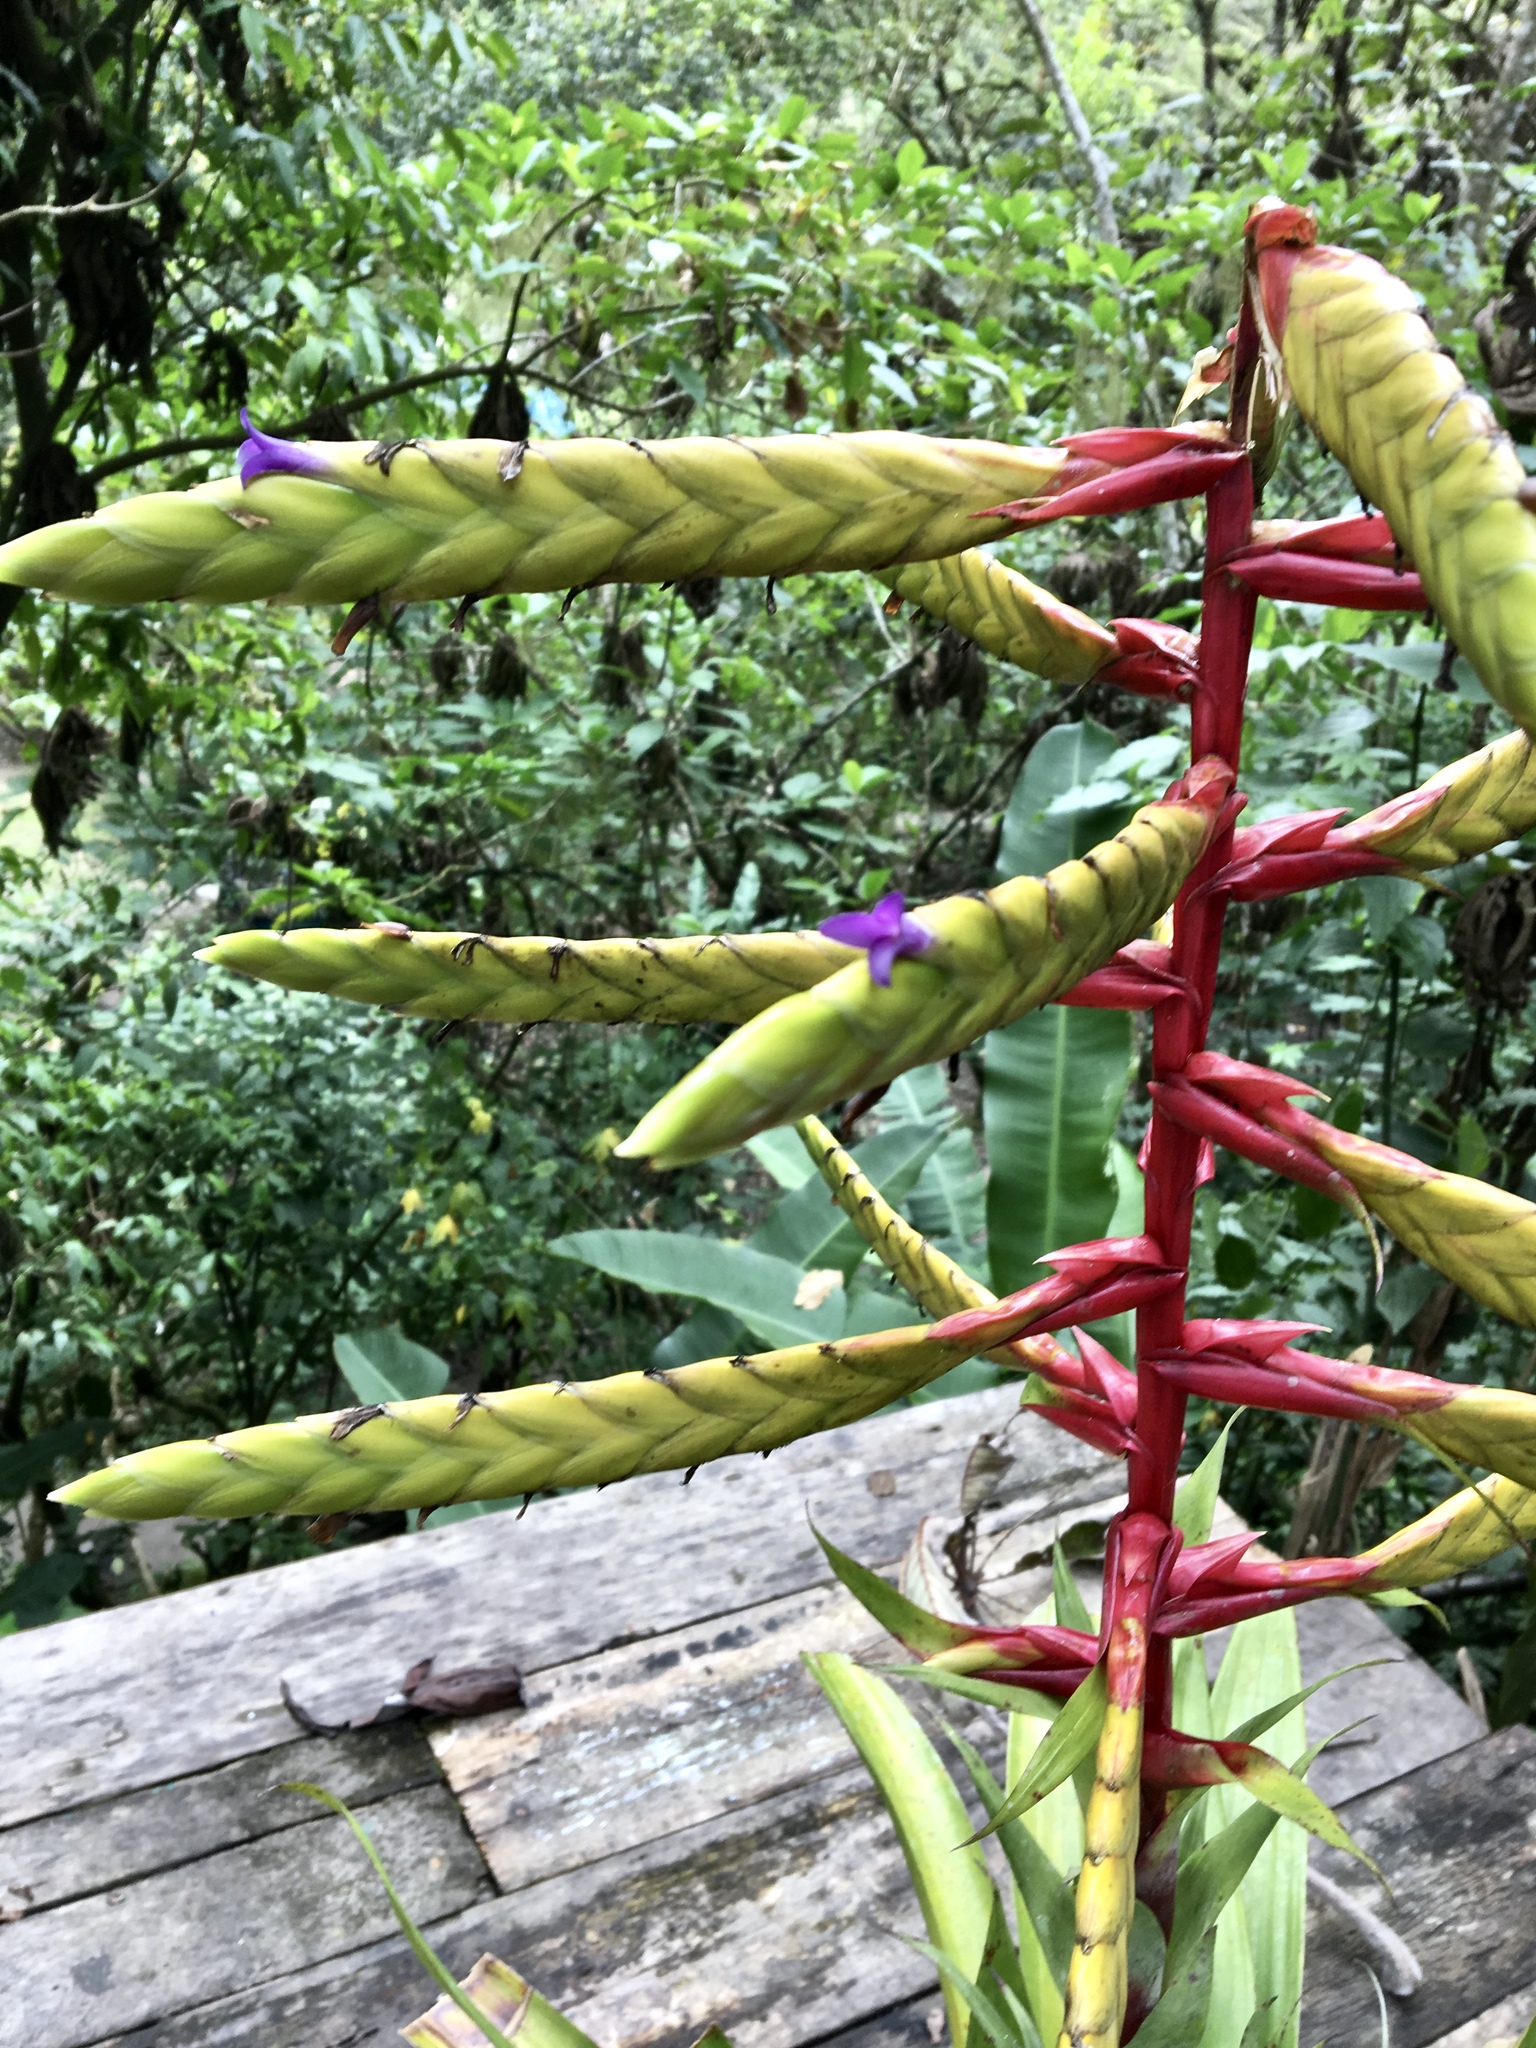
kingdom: Plantae
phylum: Tracheophyta
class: Liliopsida
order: Poales
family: Bromeliaceae
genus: Tillandsia
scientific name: Tillandsia fendleri
